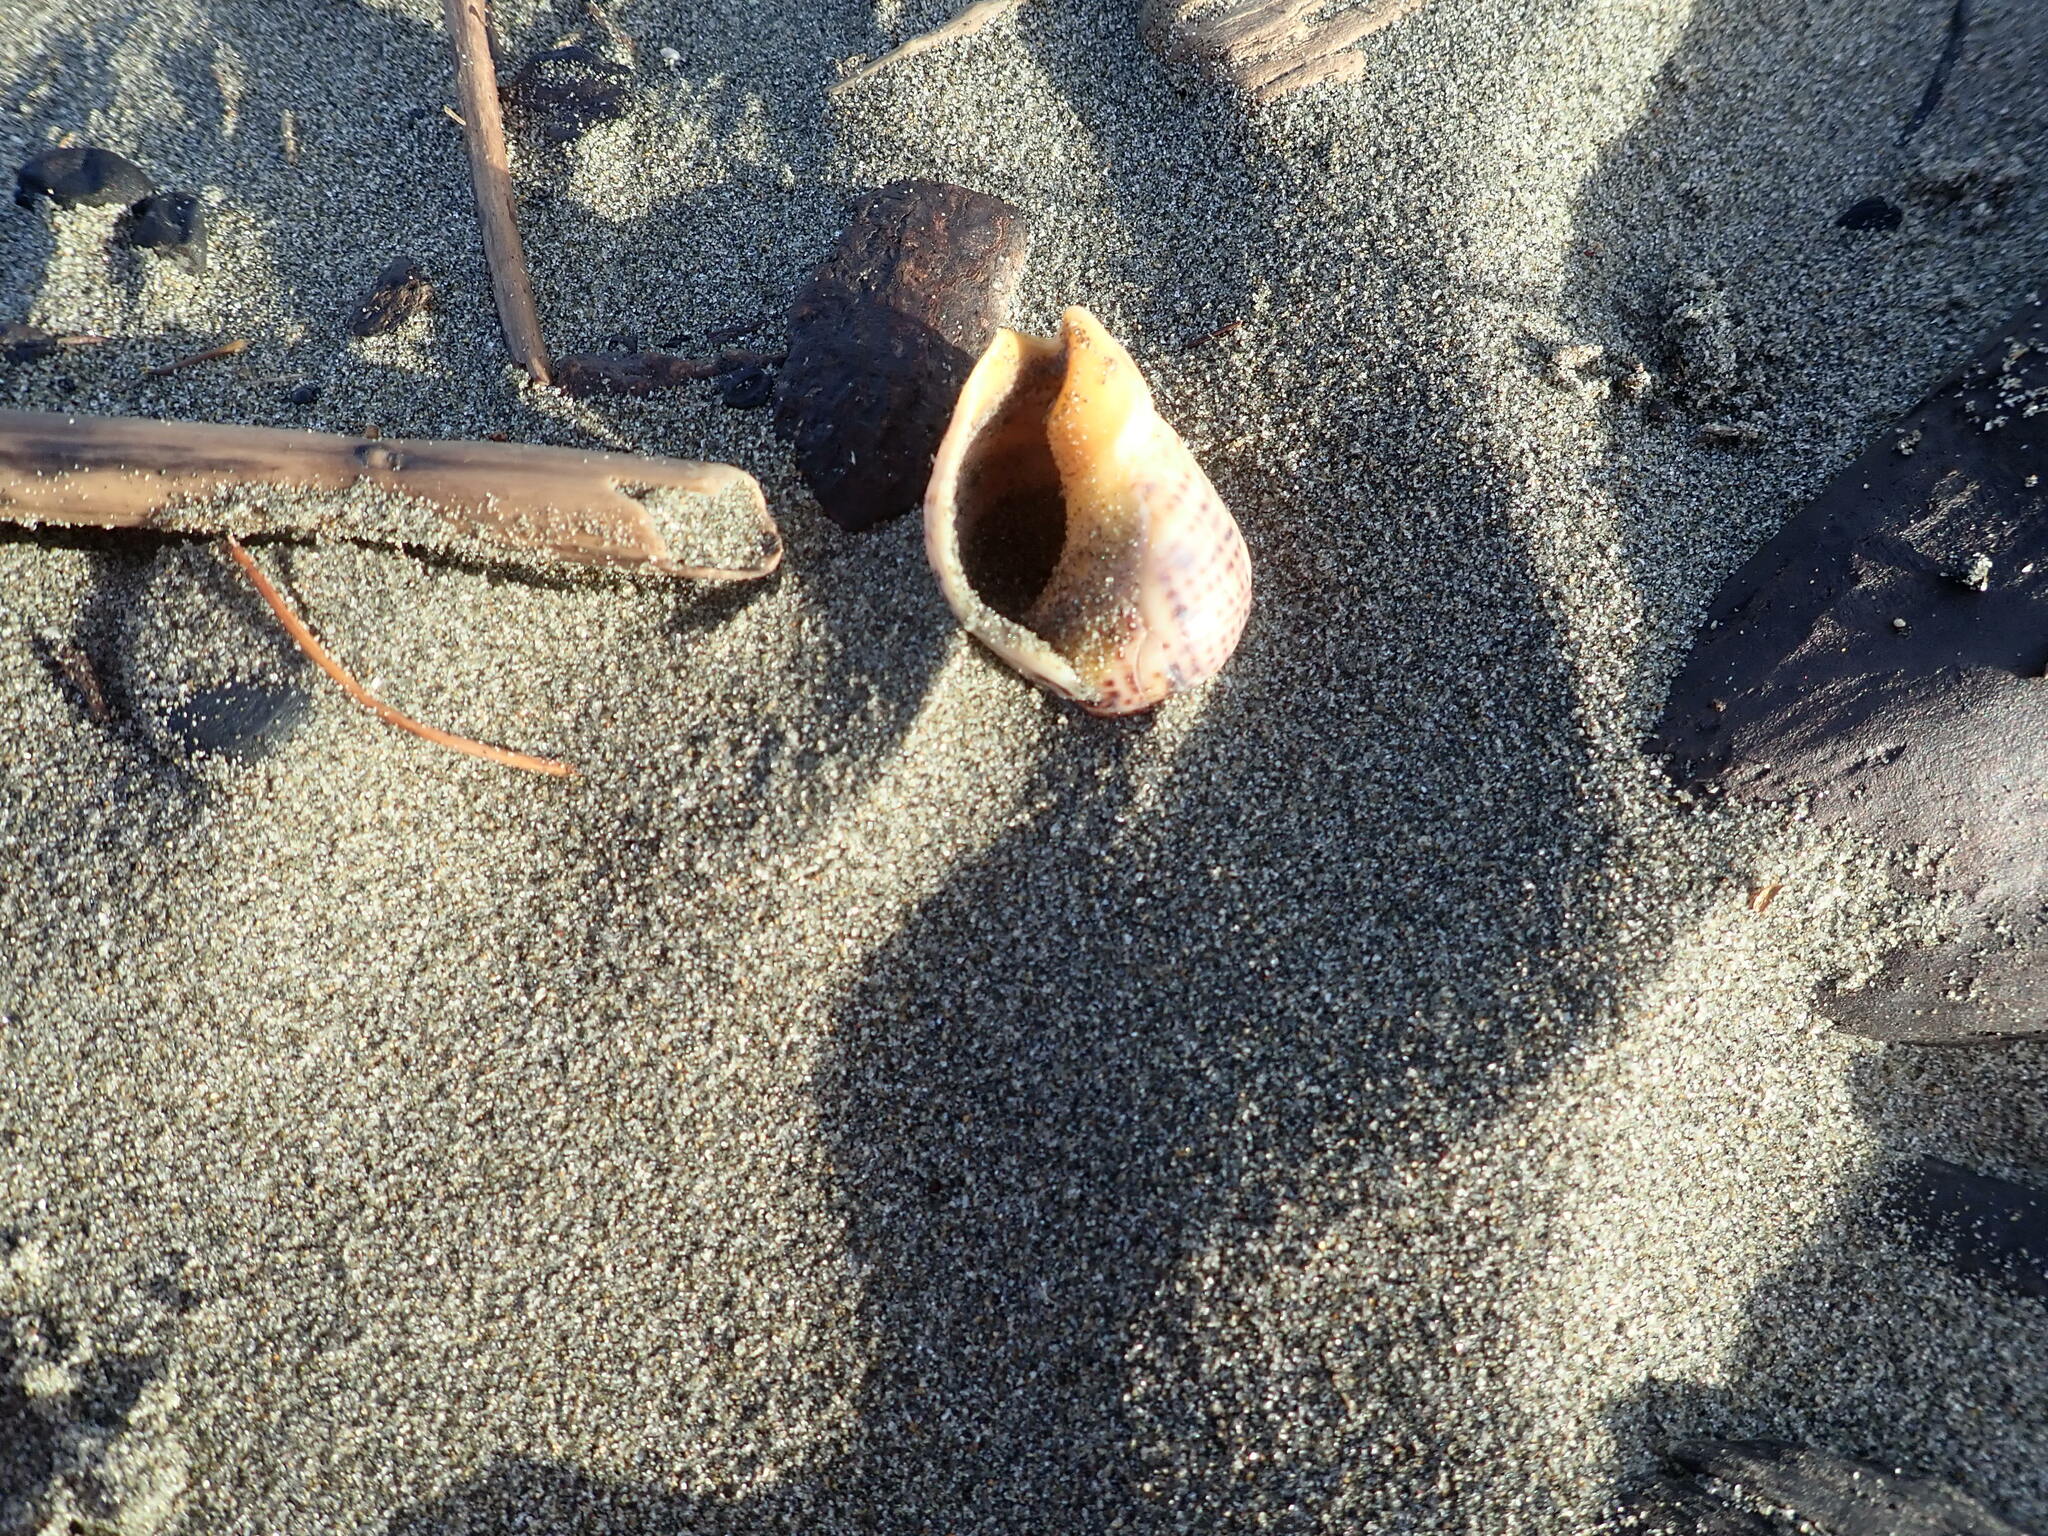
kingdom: Animalia
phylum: Mollusca
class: Gastropoda
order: Neogastropoda
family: Cominellidae
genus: Cominella
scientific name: Cominella adspersa
